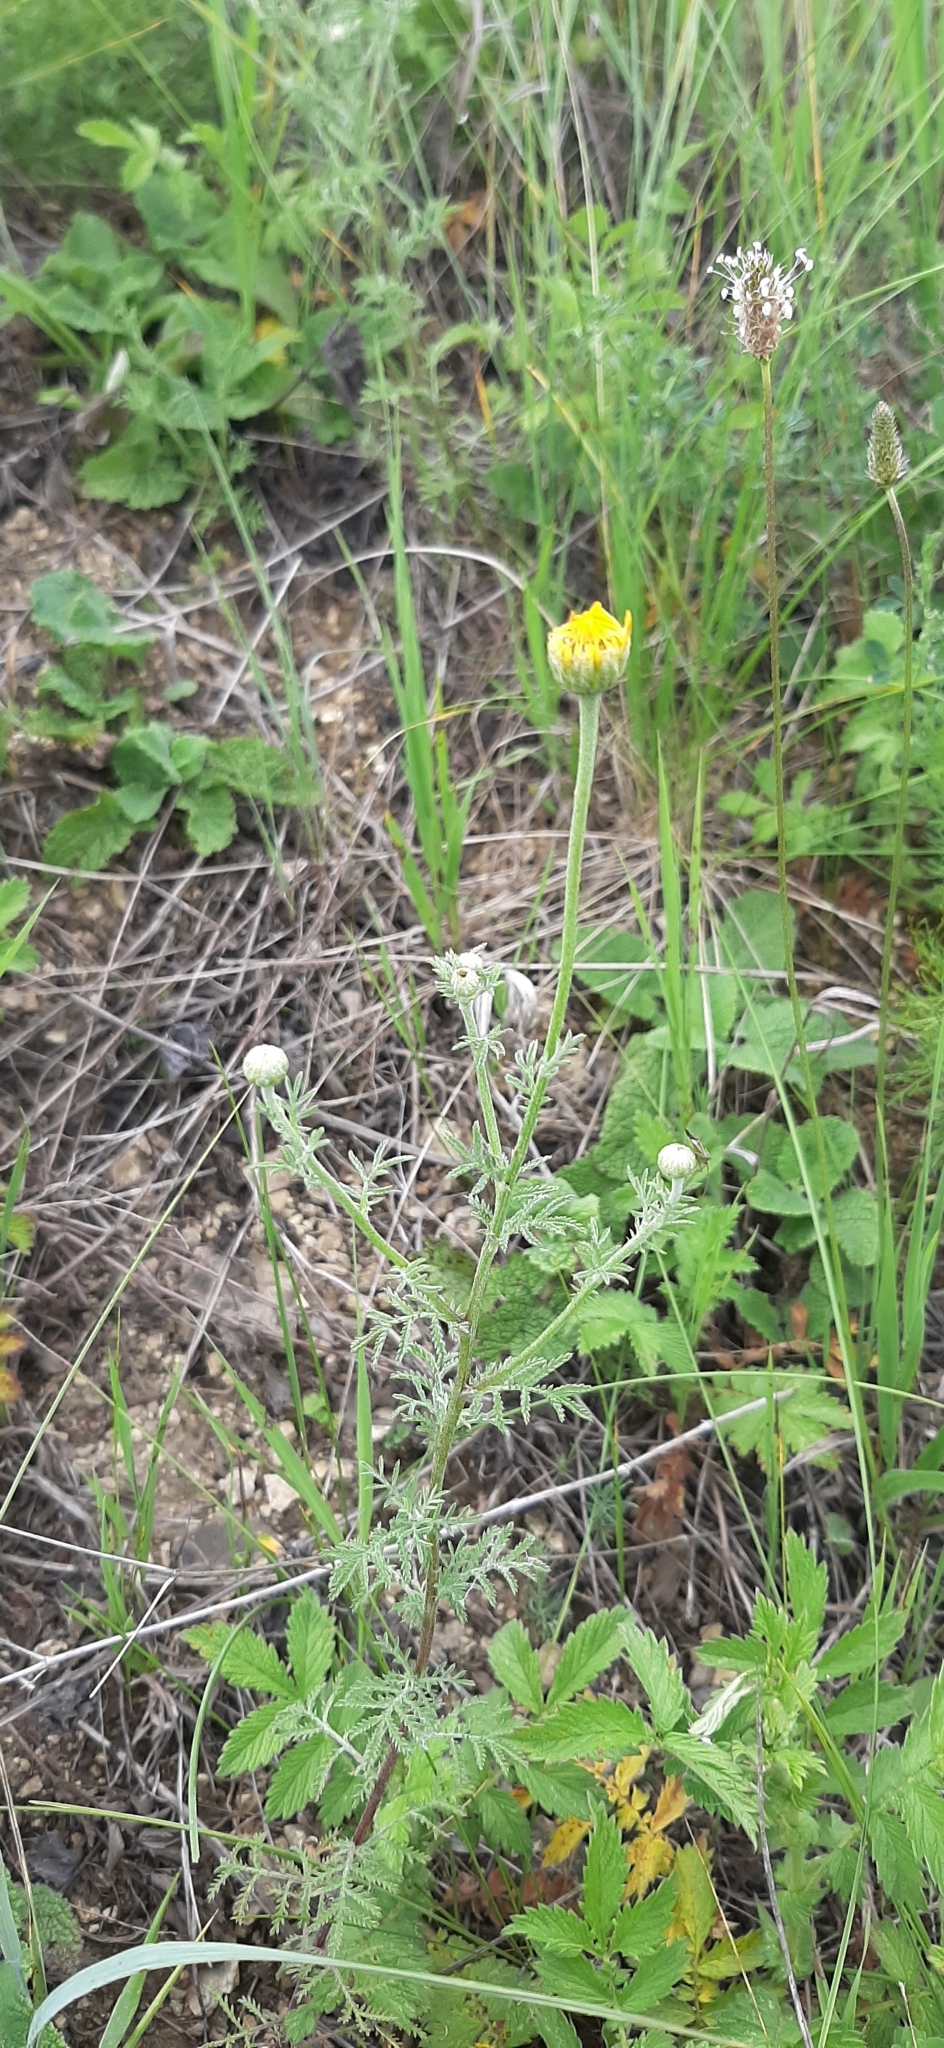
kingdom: Plantae
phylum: Tracheophyta
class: Magnoliopsida
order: Asterales
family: Asteraceae
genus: Cota
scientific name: Cota tinctoria
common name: Golden chamomile
